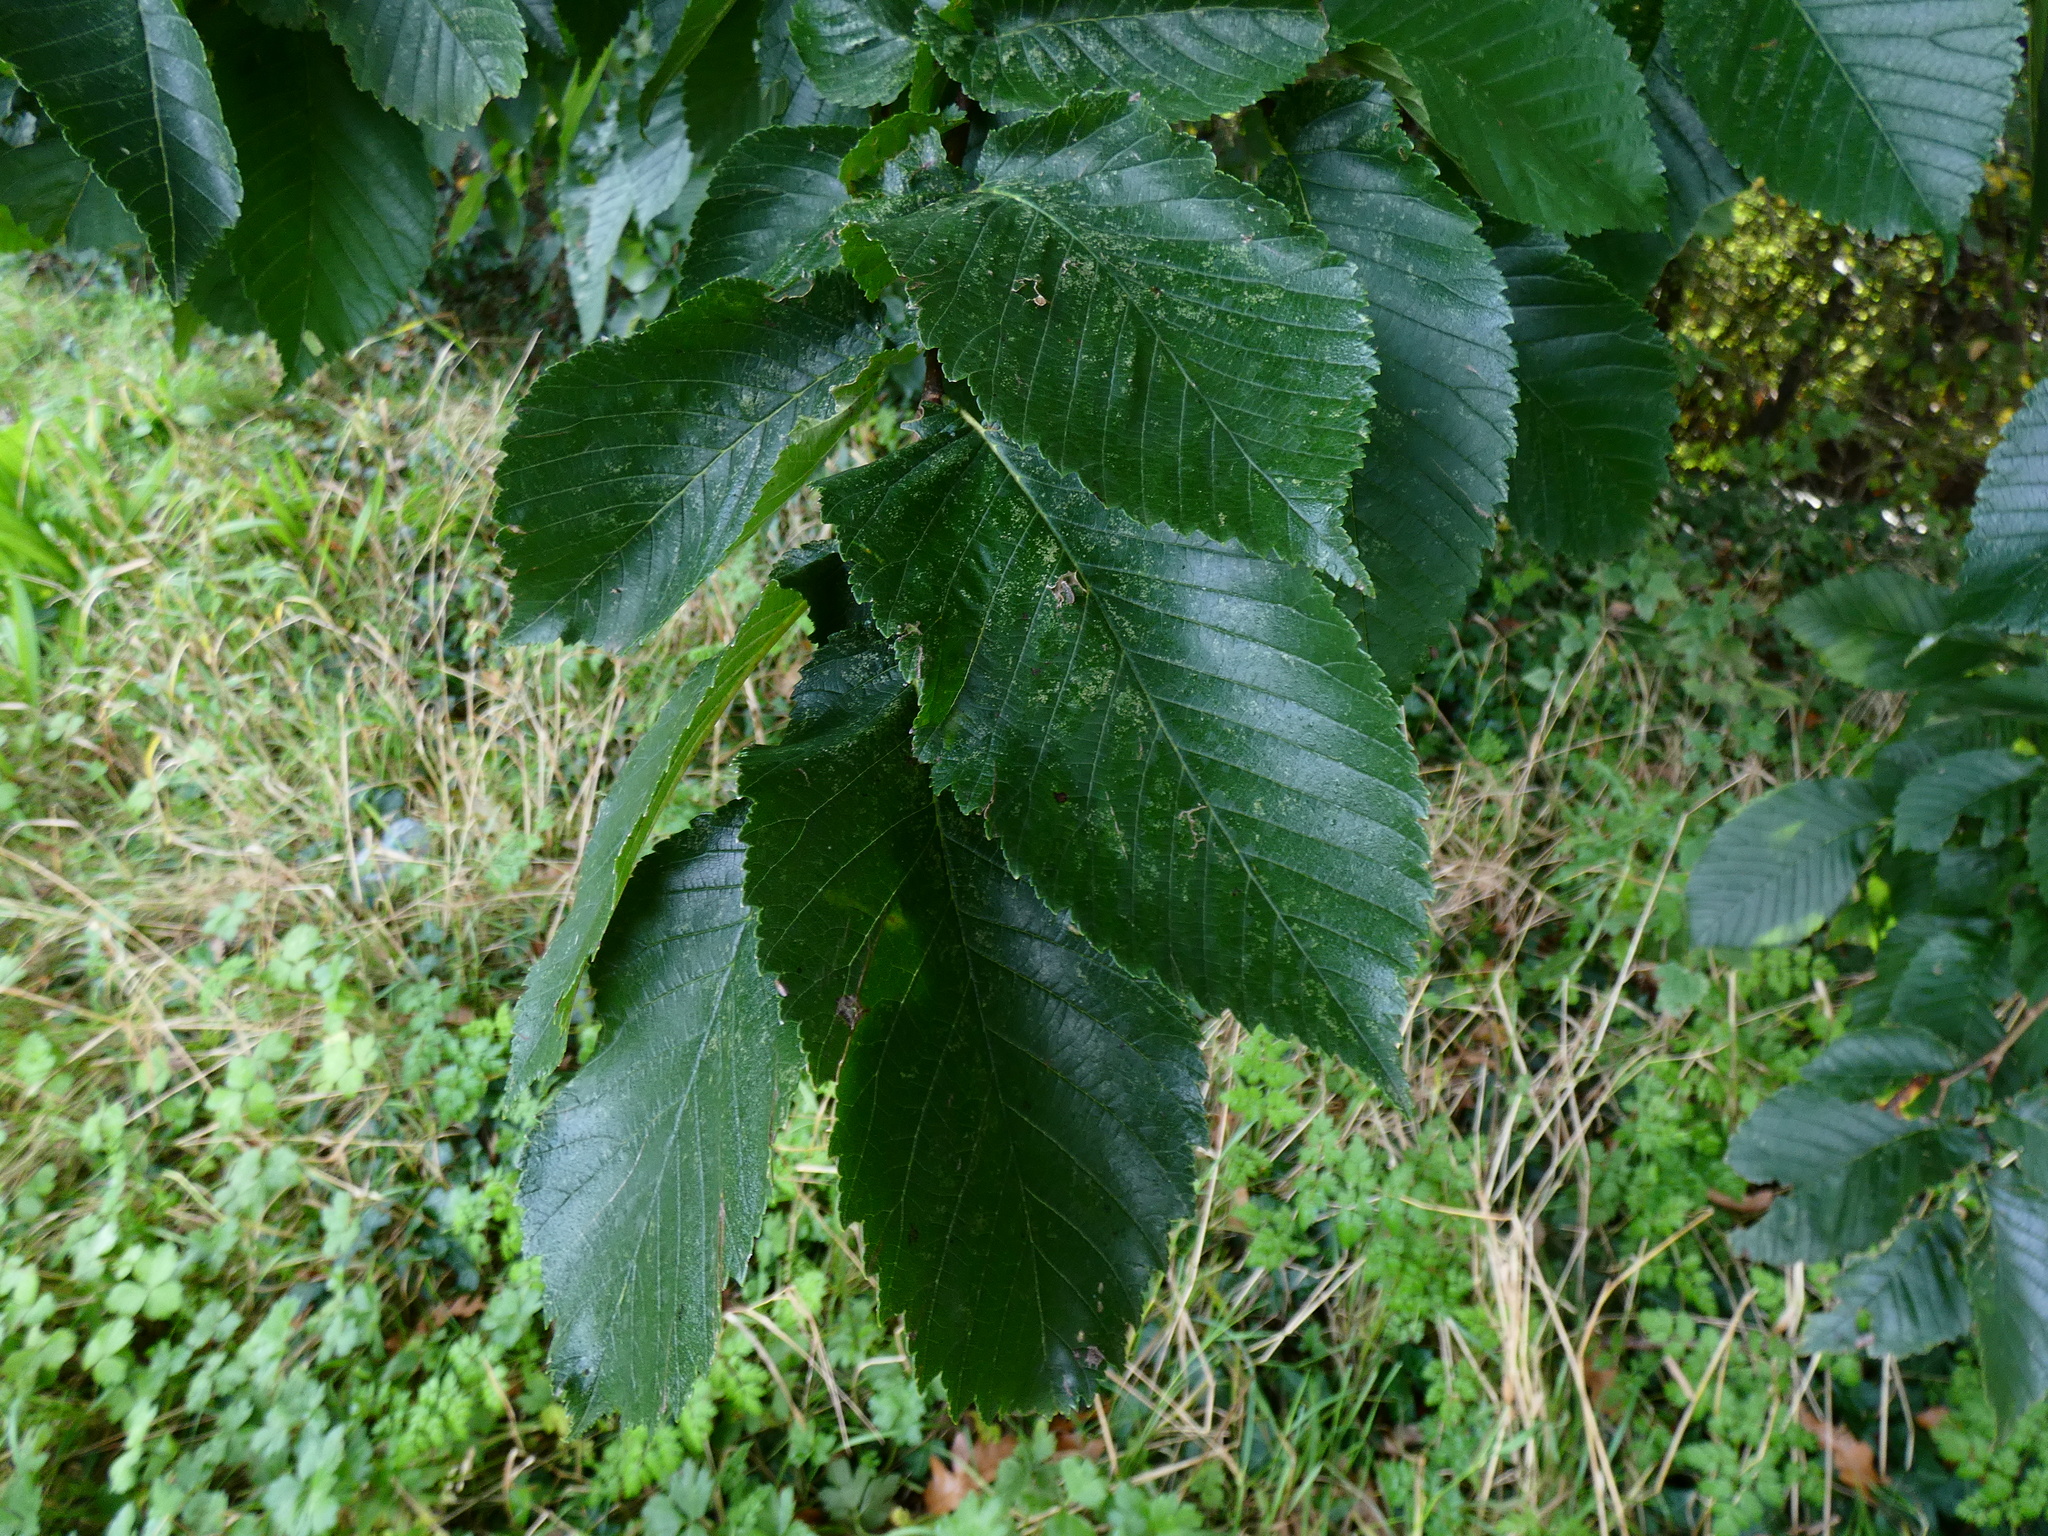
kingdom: Plantae
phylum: Tracheophyta
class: Magnoliopsida
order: Rosales
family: Ulmaceae
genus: Ulmus
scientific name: Ulmus glabra
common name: Wych elm
